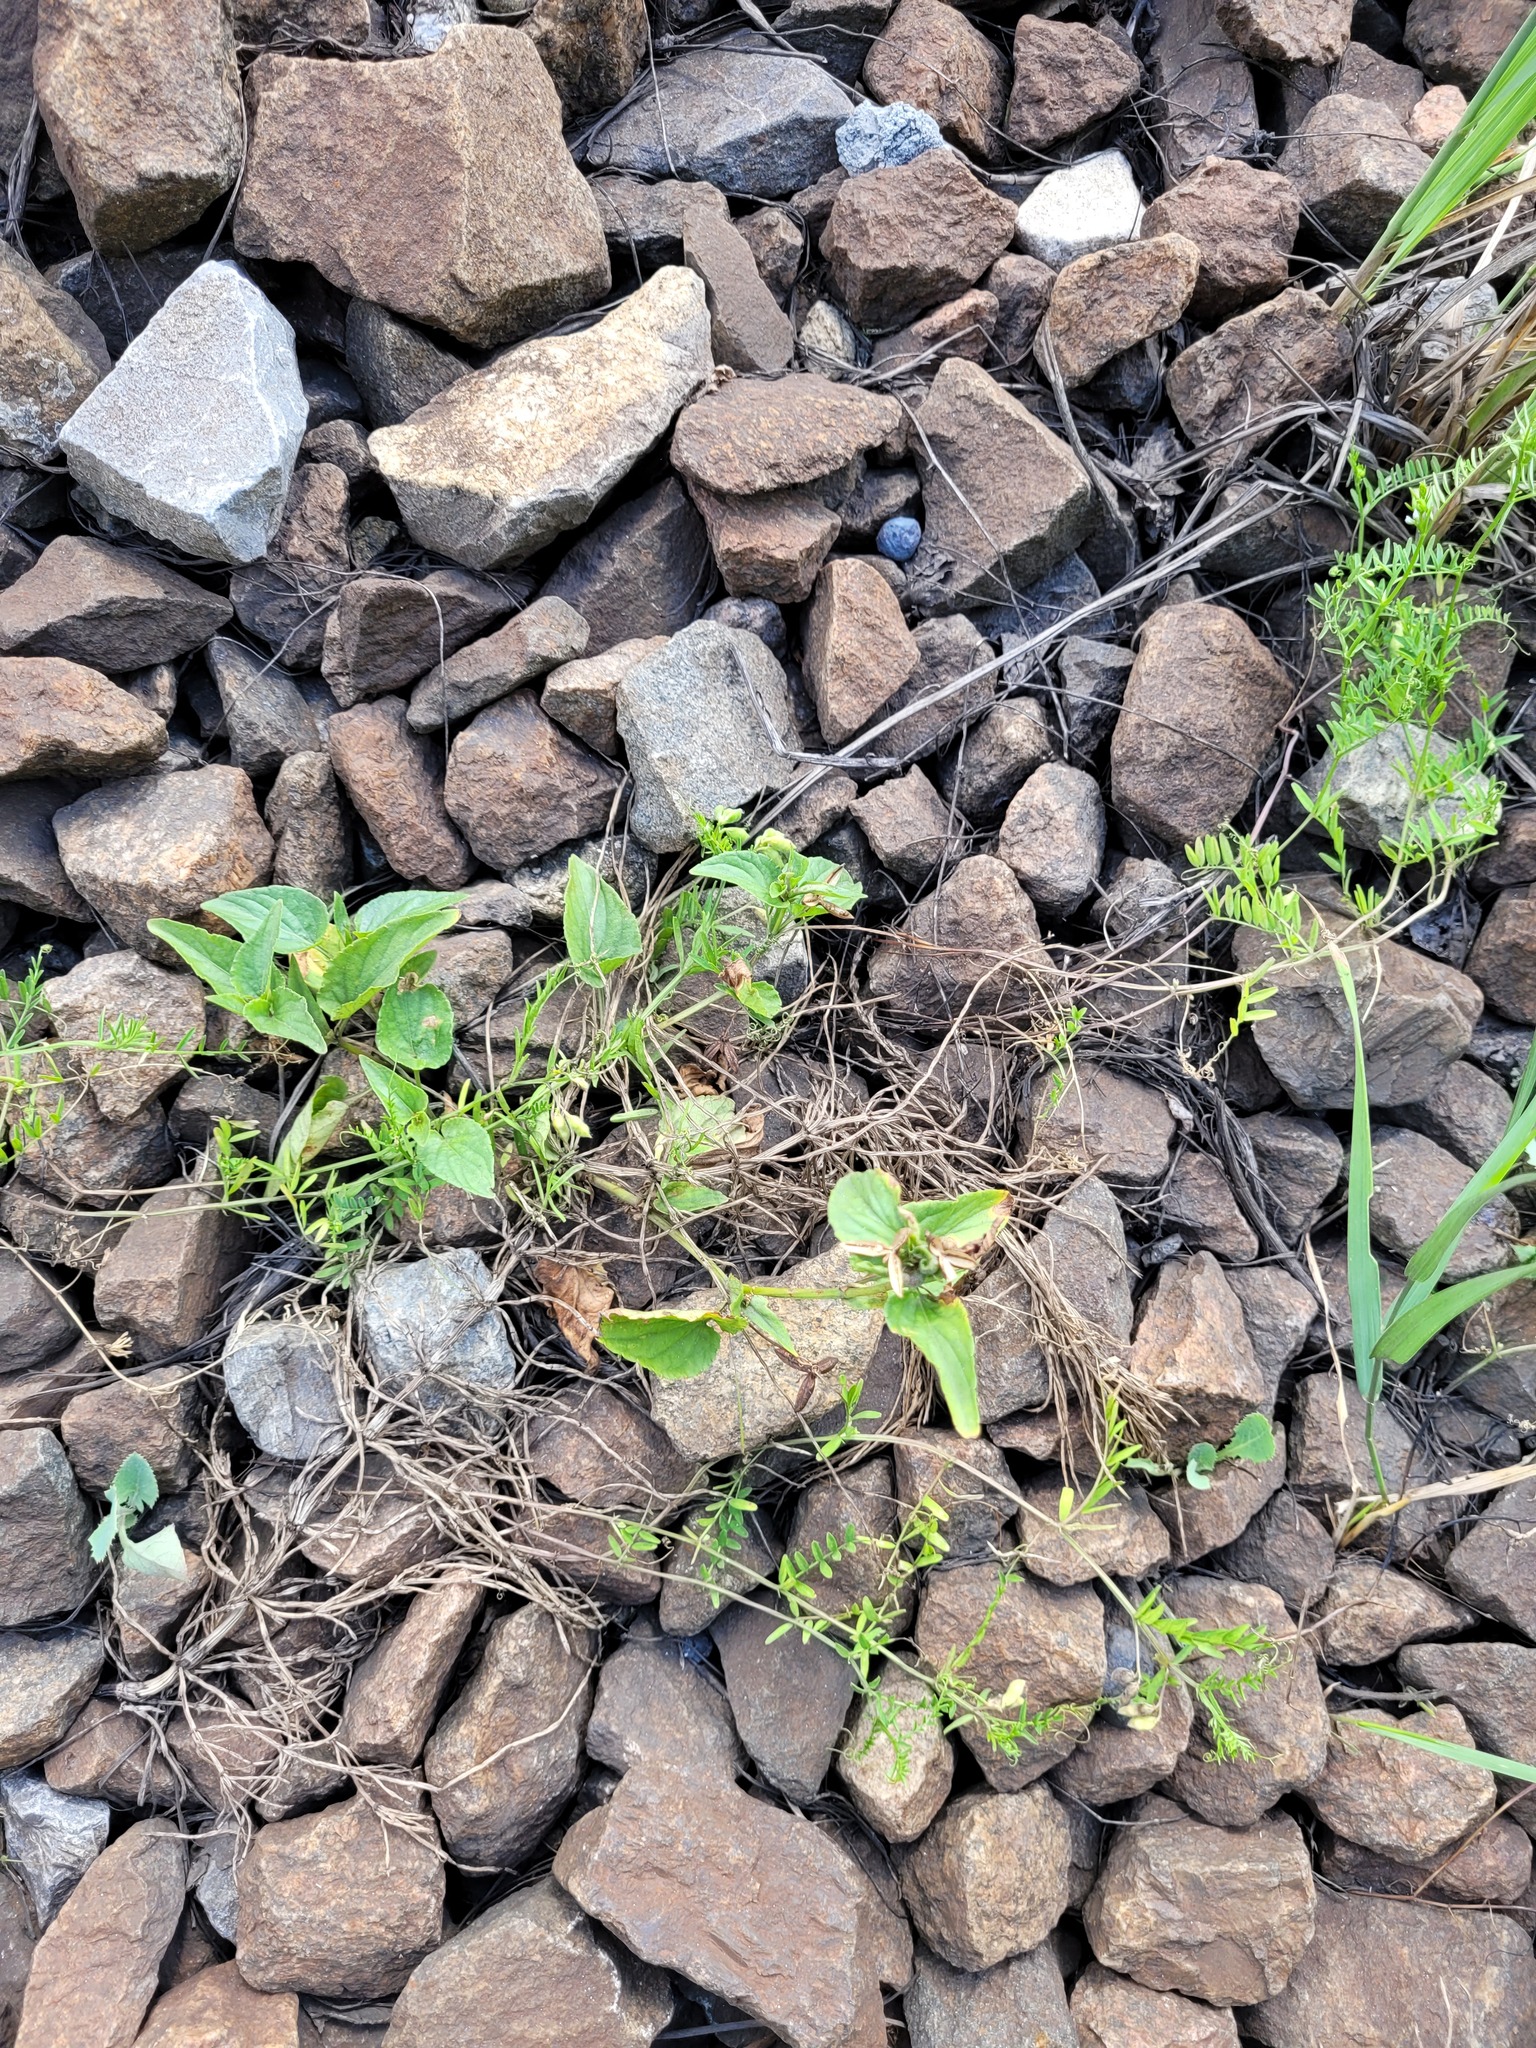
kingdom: Plantae
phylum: Tracheophyta
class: Magnoliopsida
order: Malpighiales
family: Violaceae
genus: Viola
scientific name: Viola
